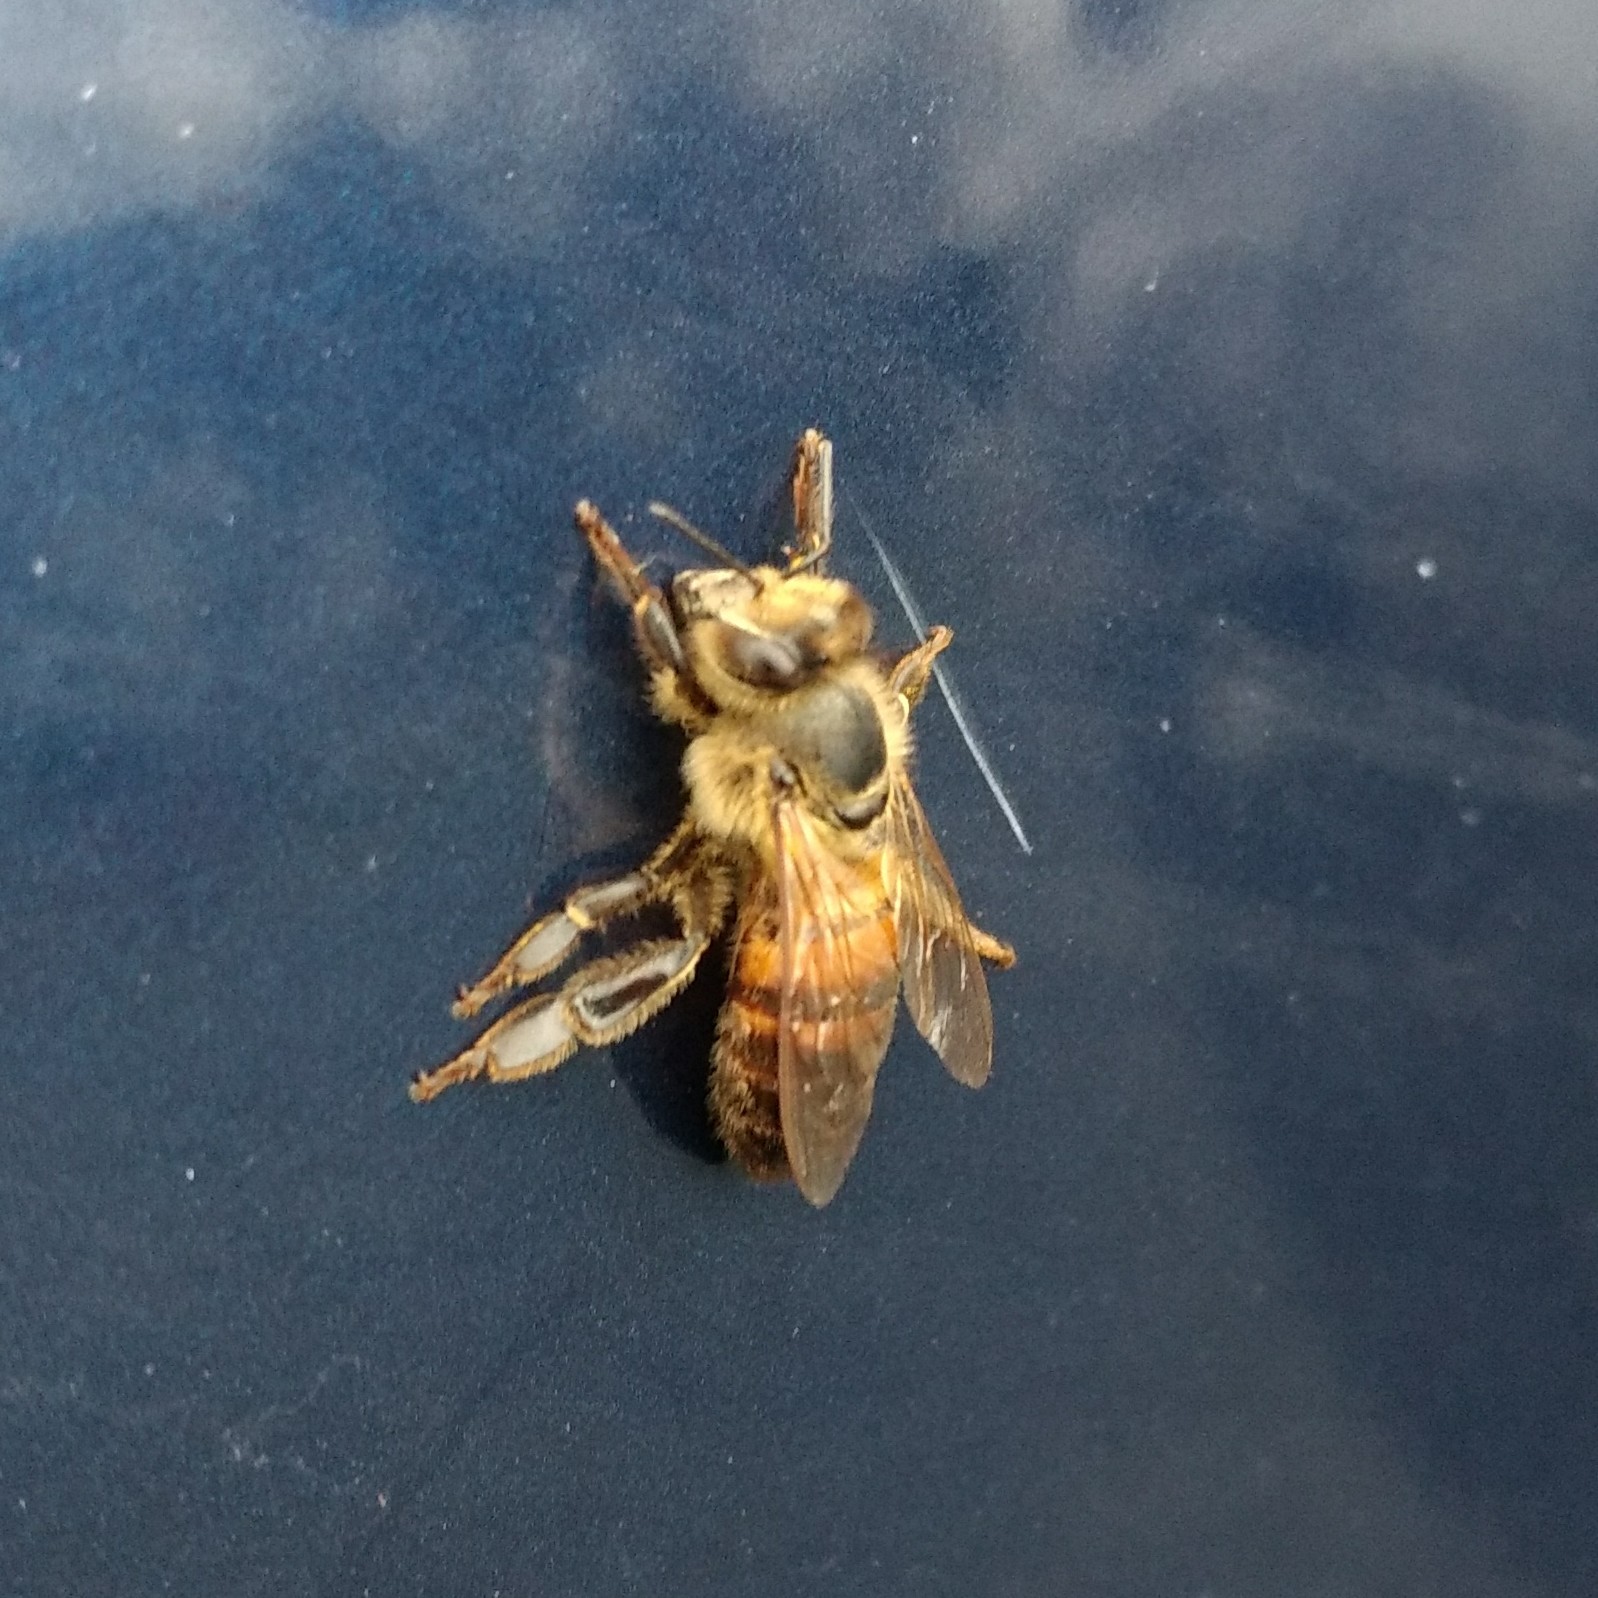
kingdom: Animalia
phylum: Arthropoda
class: Insecta
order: Hymenoptera
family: Apidae
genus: Apis
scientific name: Apis mellifera
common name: Honey bee
